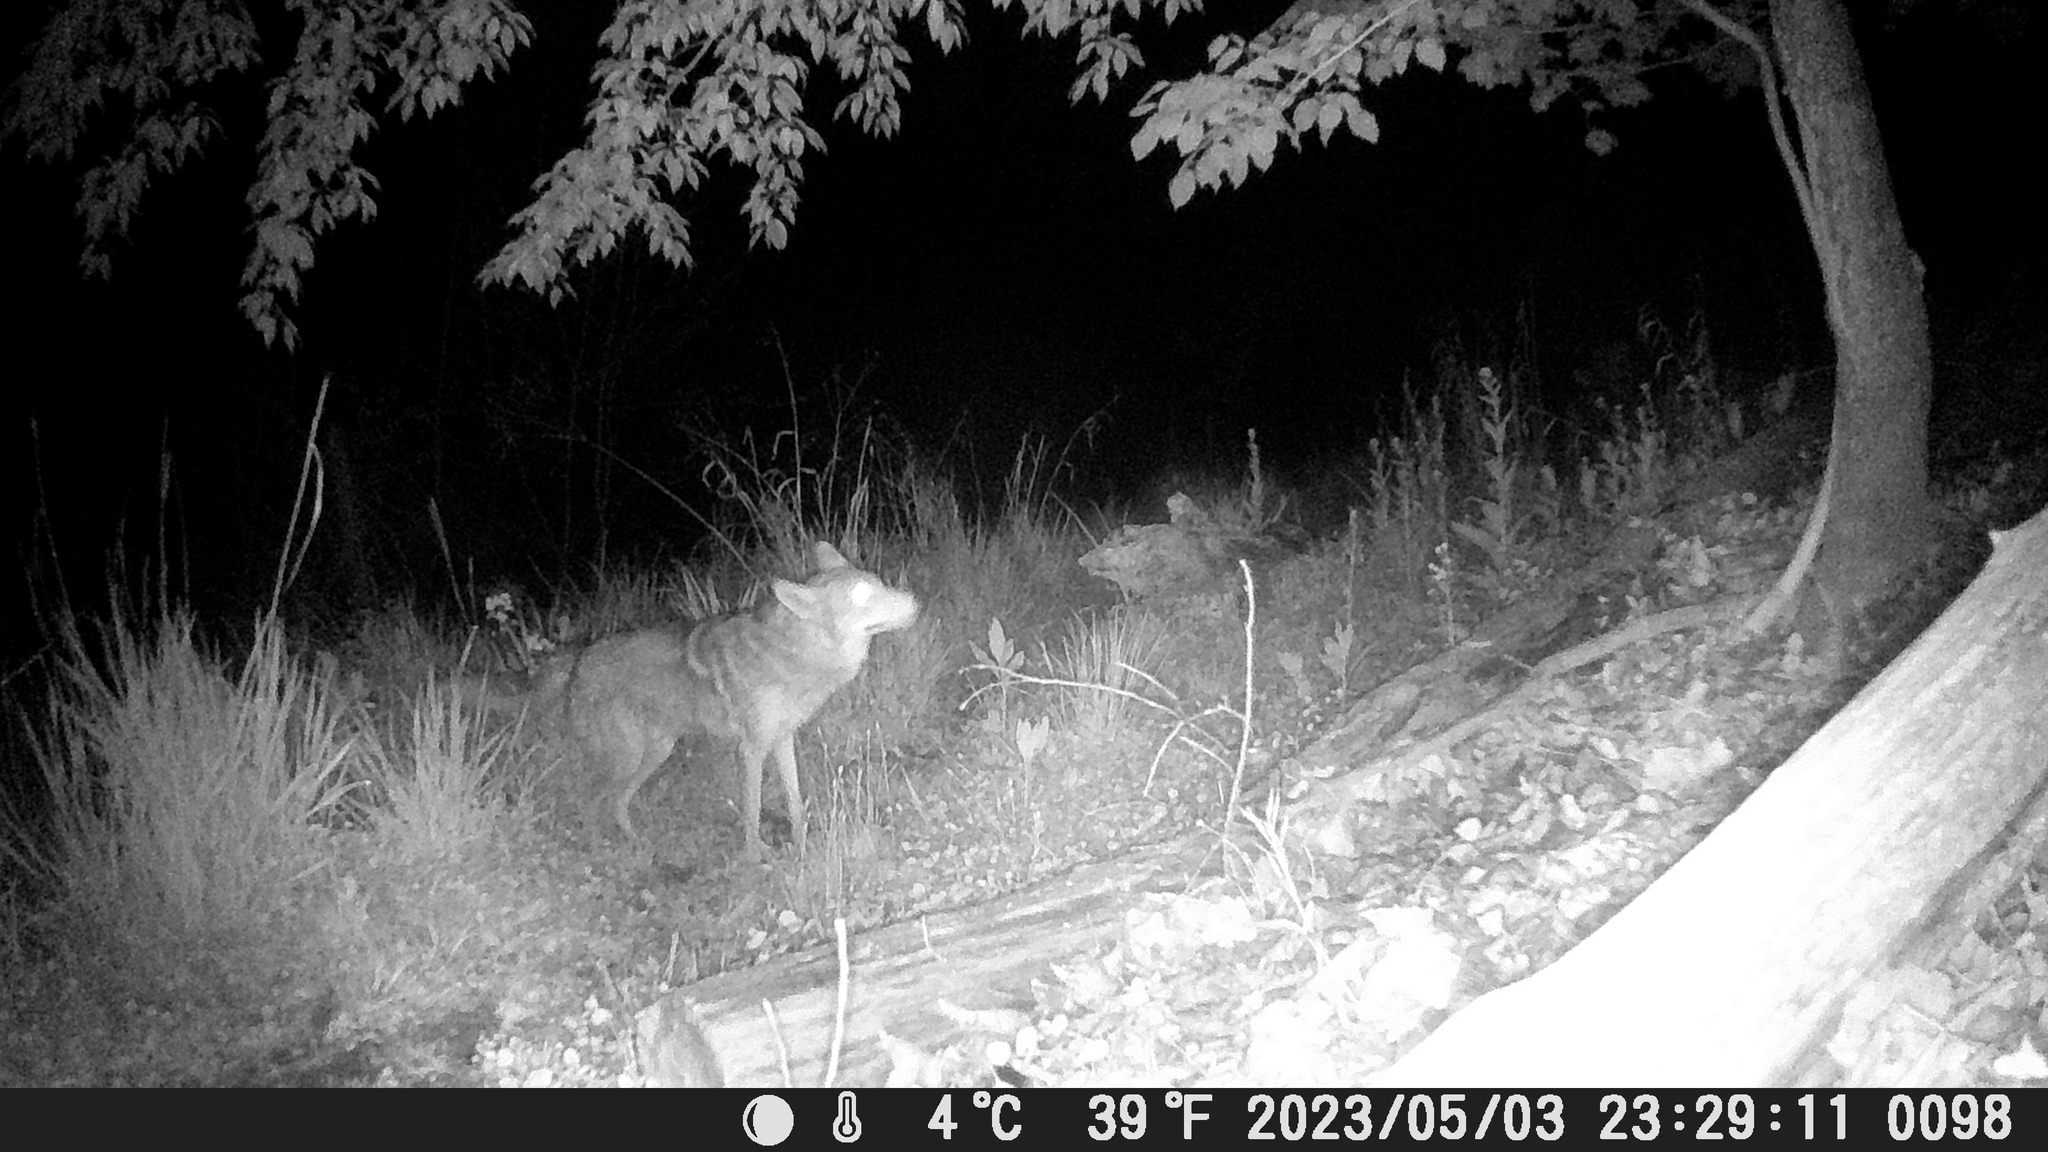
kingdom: Animalia
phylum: Chordata
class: Mammalia
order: Carnivora
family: Canidae
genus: Canis
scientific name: Canis latrans
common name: Coyote
